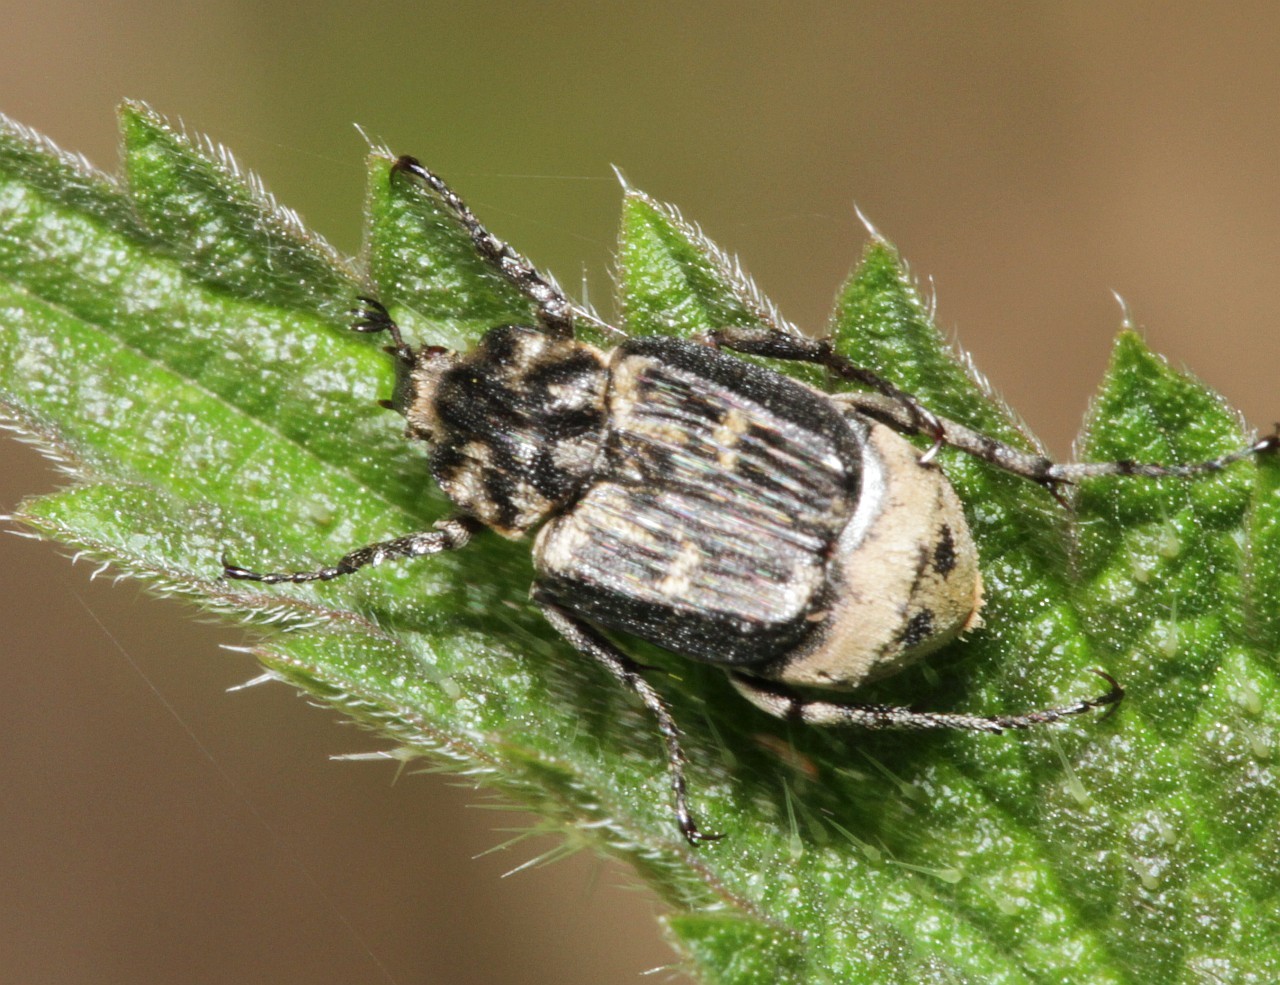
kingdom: Animalia
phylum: Arthropoda
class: Insecta
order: Coleoptera
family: Scarabaeidae
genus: Valgus
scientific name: Valgus hemipterus
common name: Bug flower chafer
